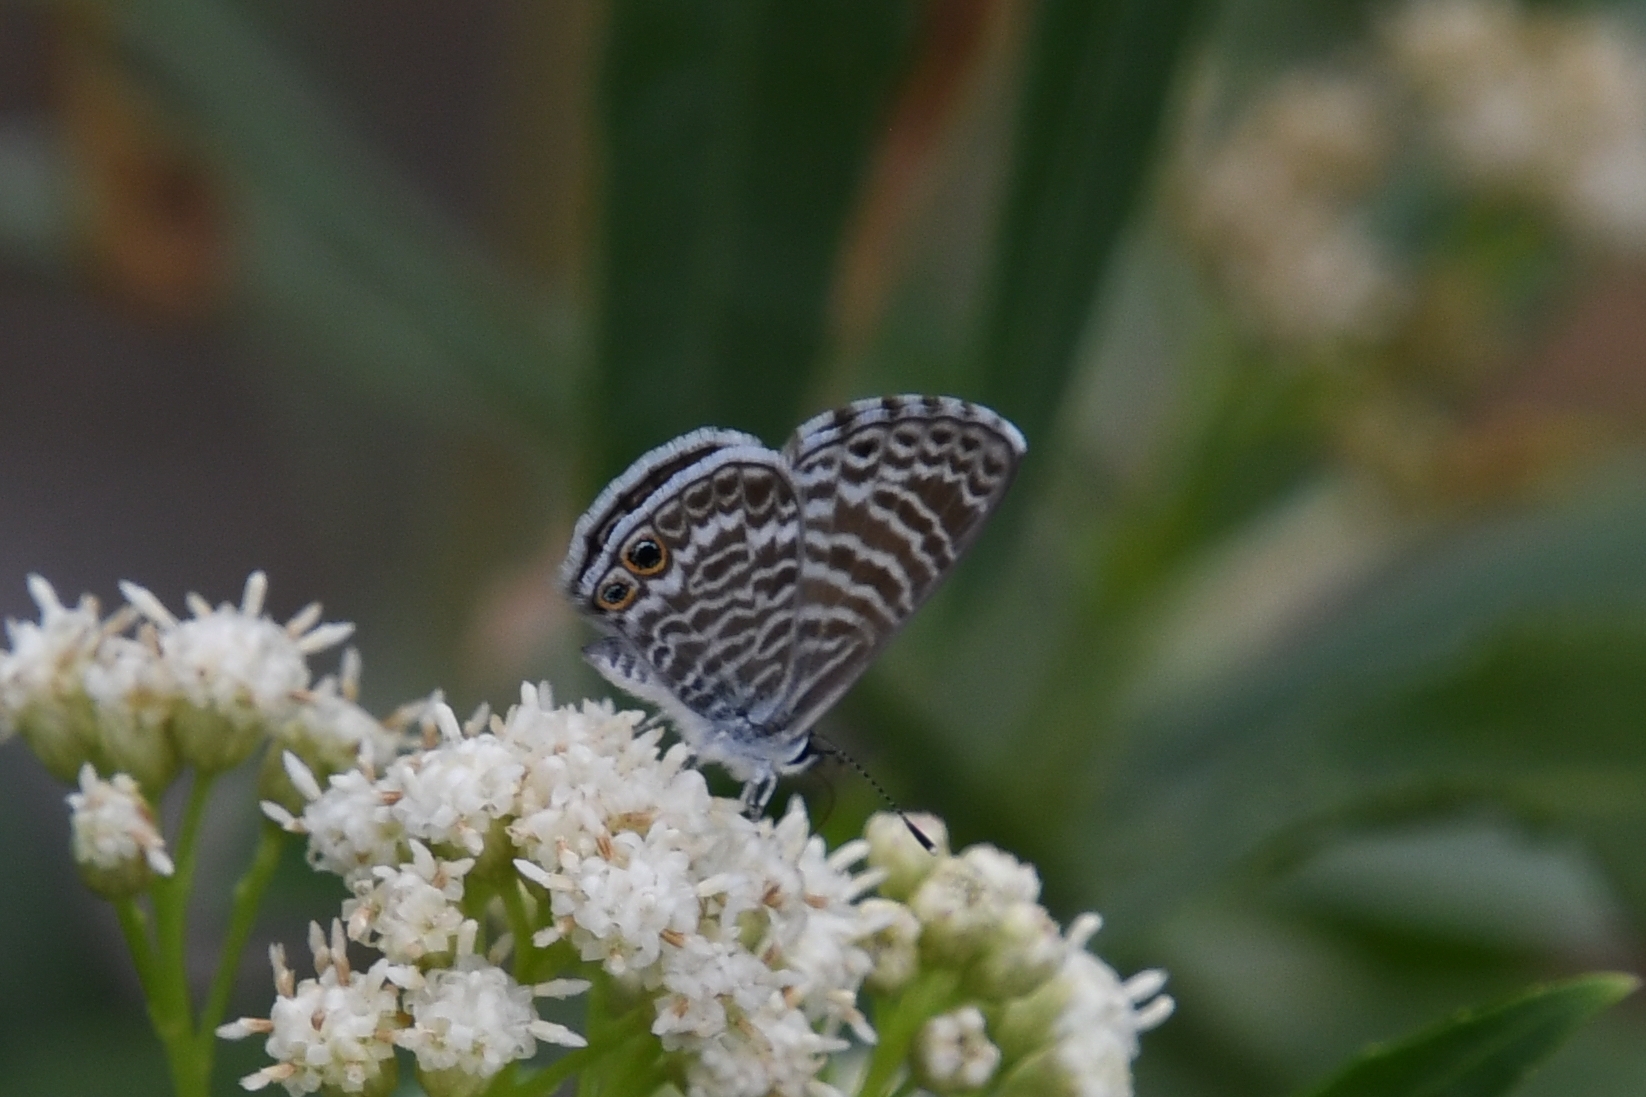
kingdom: Animalia
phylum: Arthropoda
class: Insecta
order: Lepidoptera
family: Lycaenidae
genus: Leptotes
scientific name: Leptotes marina
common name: Marine blue
